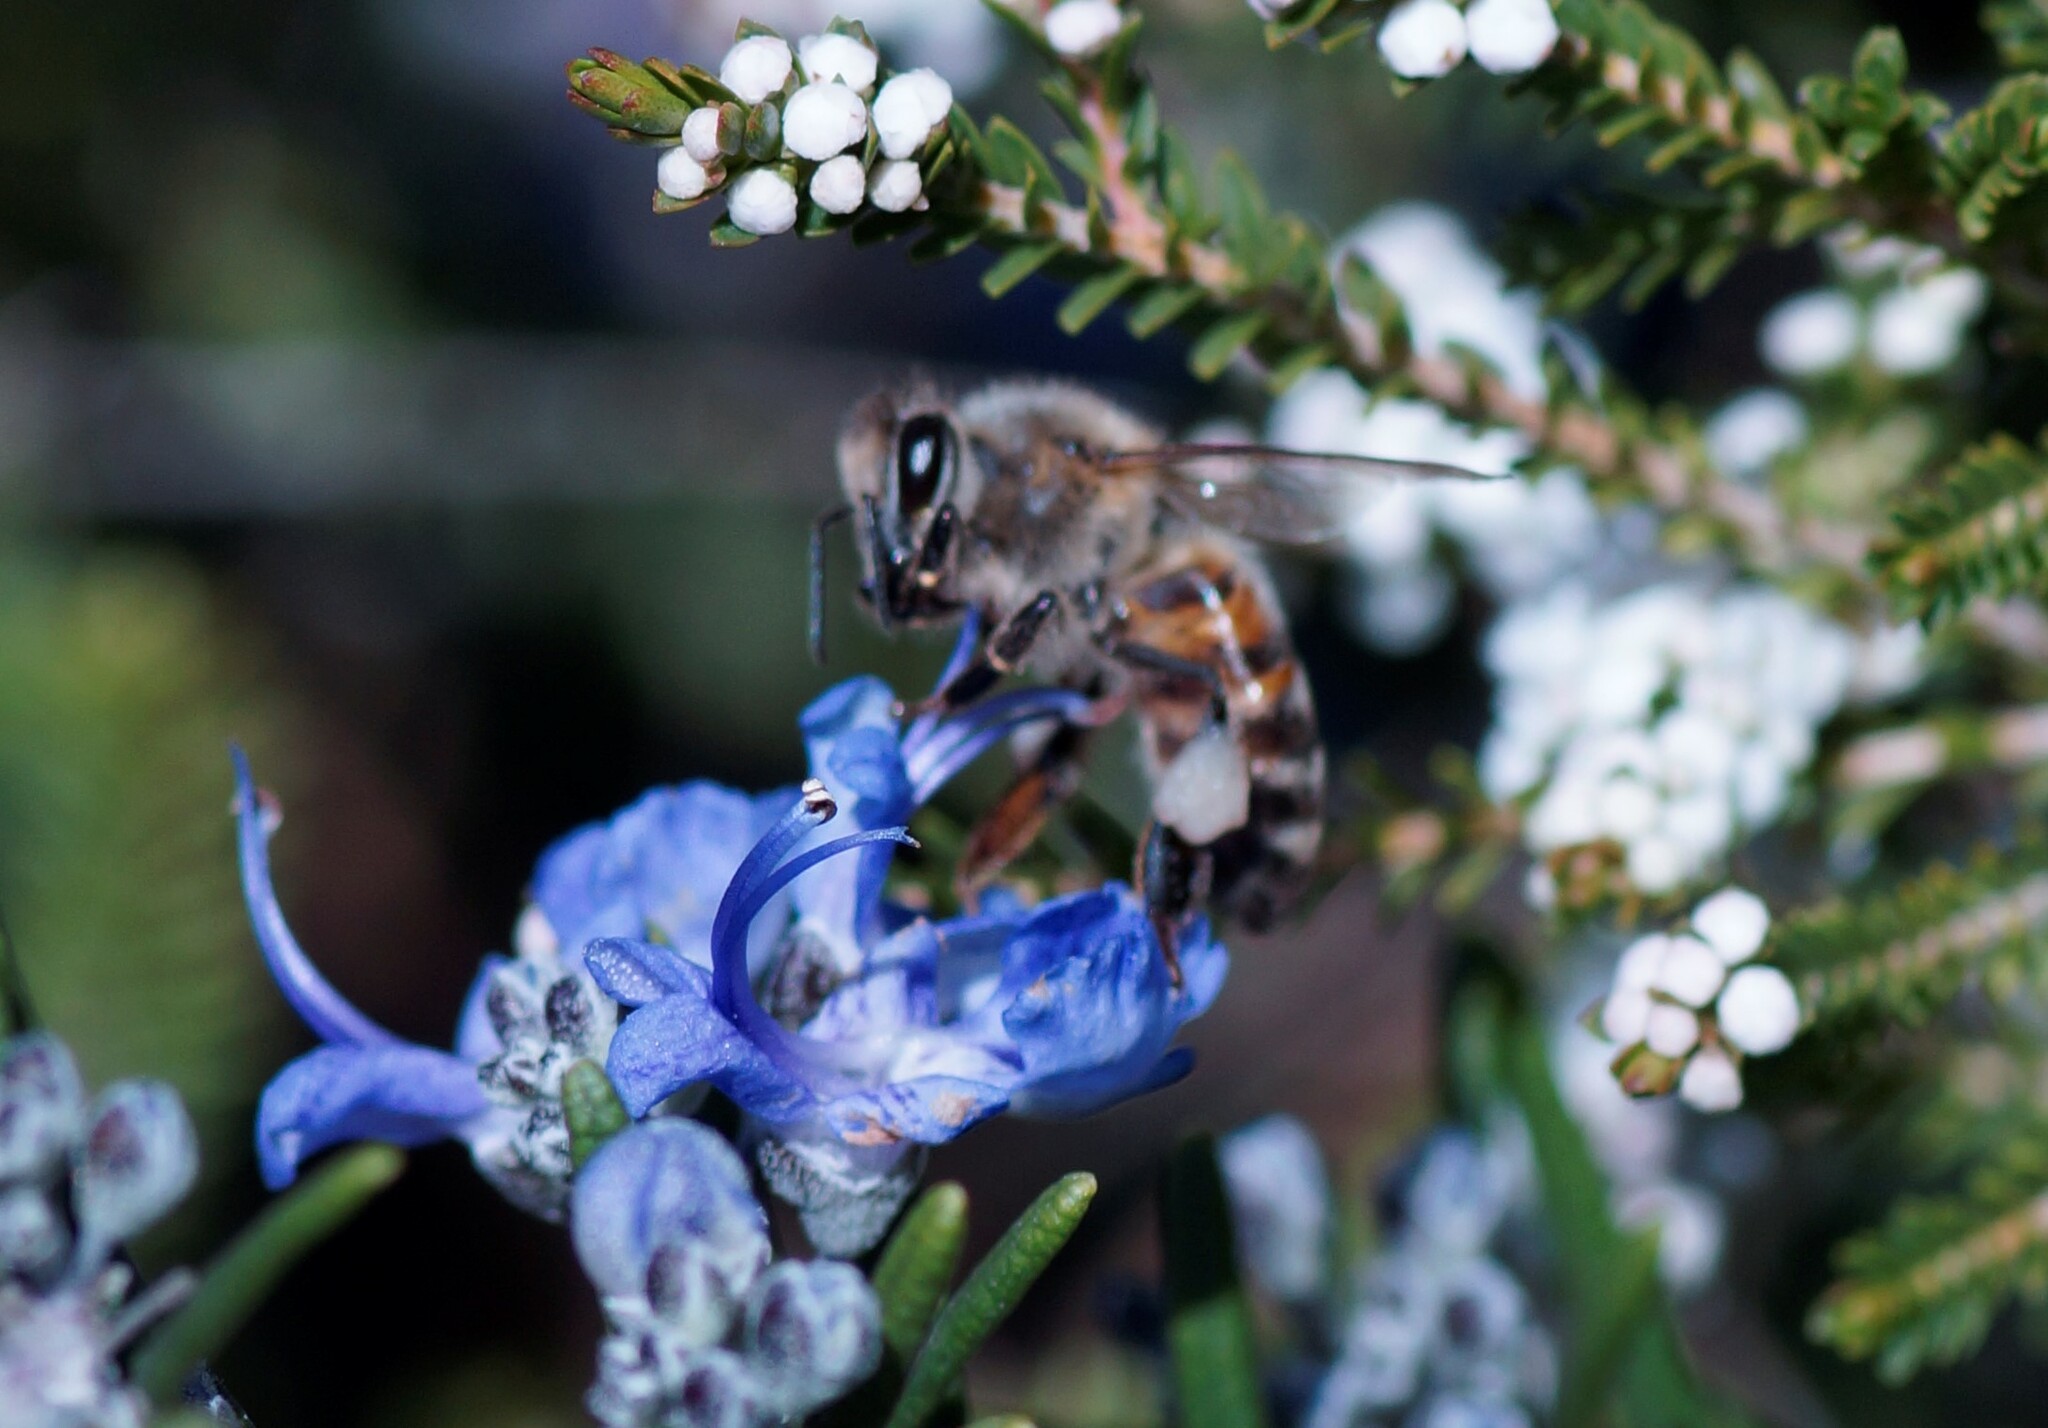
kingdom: Animalia
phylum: Arthropoda
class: Insecta
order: Hymenoptera
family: Apidae
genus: Apis
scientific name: Apis mellifera
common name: Honey bee
